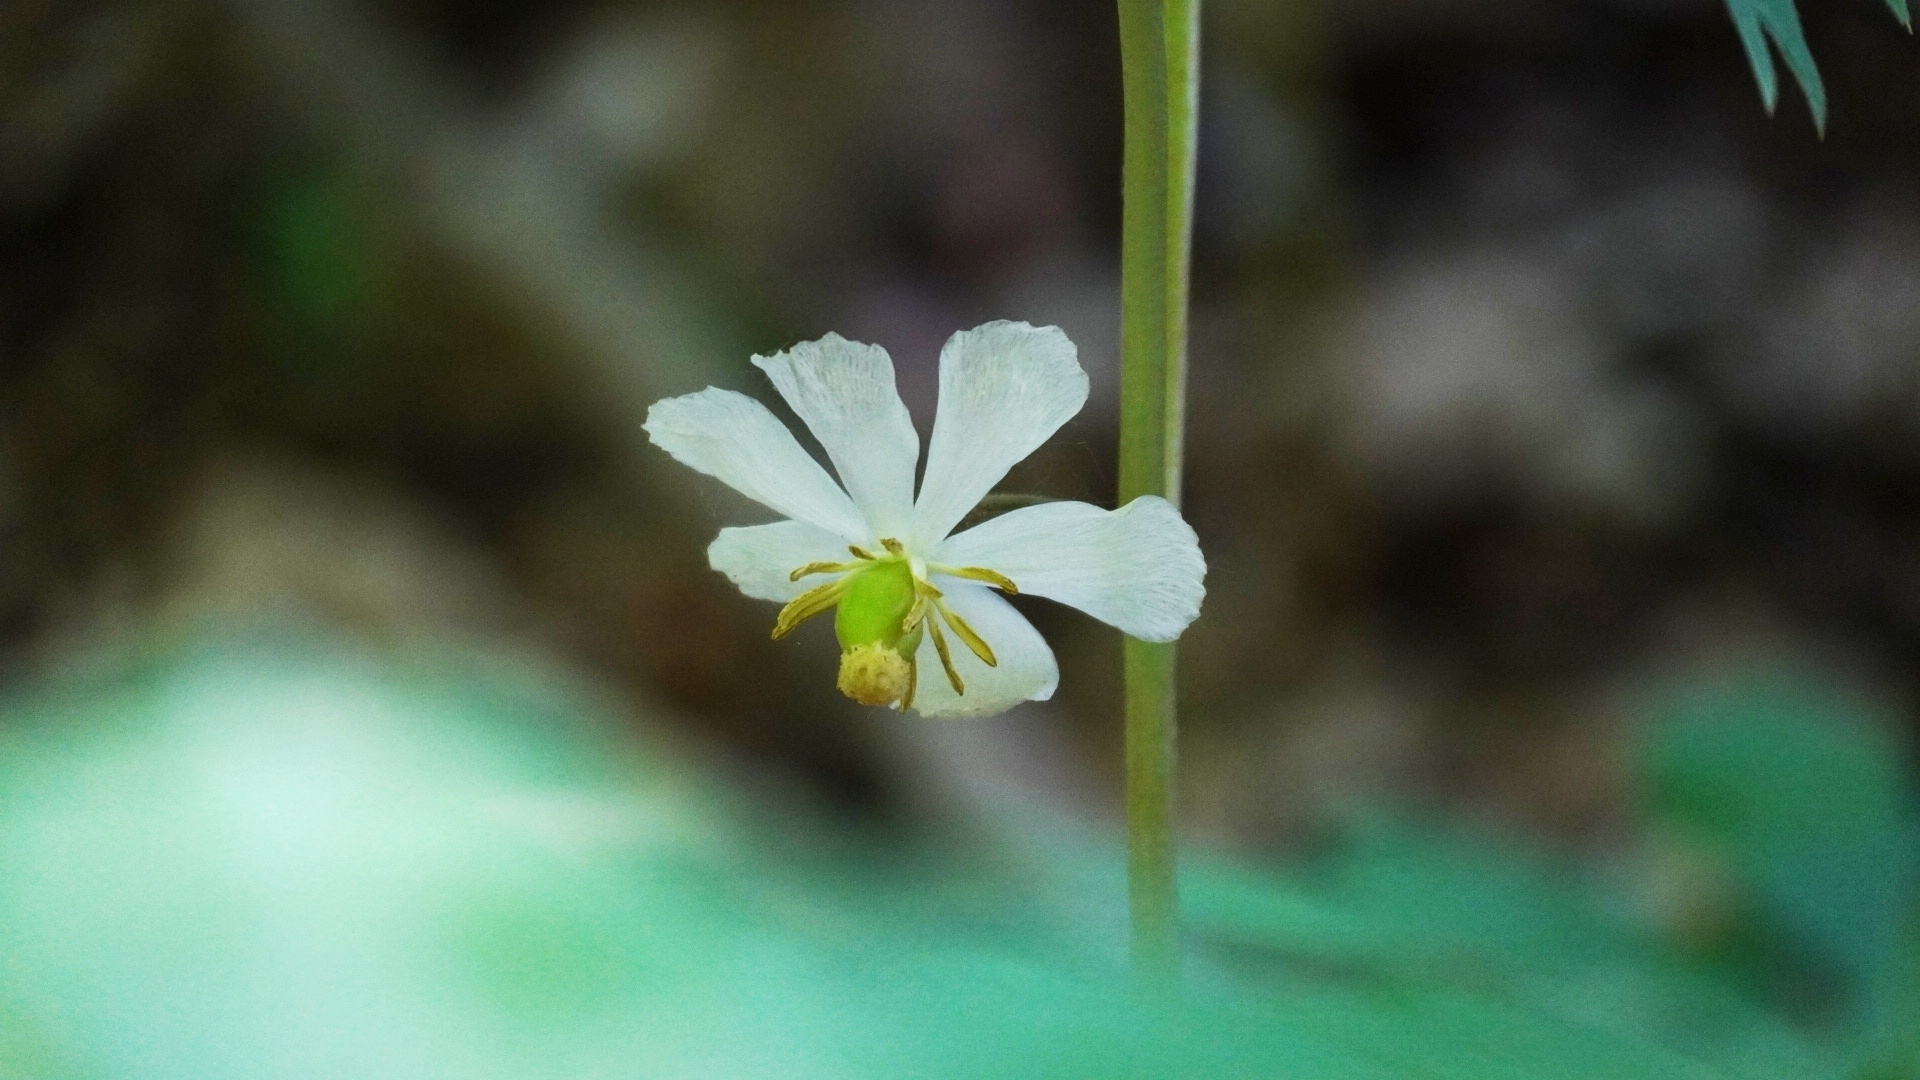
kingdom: Plantae
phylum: Tracheophyta
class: Magnoliopsida
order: Ranunculales
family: Berberidaceae
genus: Podophyllum
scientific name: Podophyllum peltatum
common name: Wild mandrake
